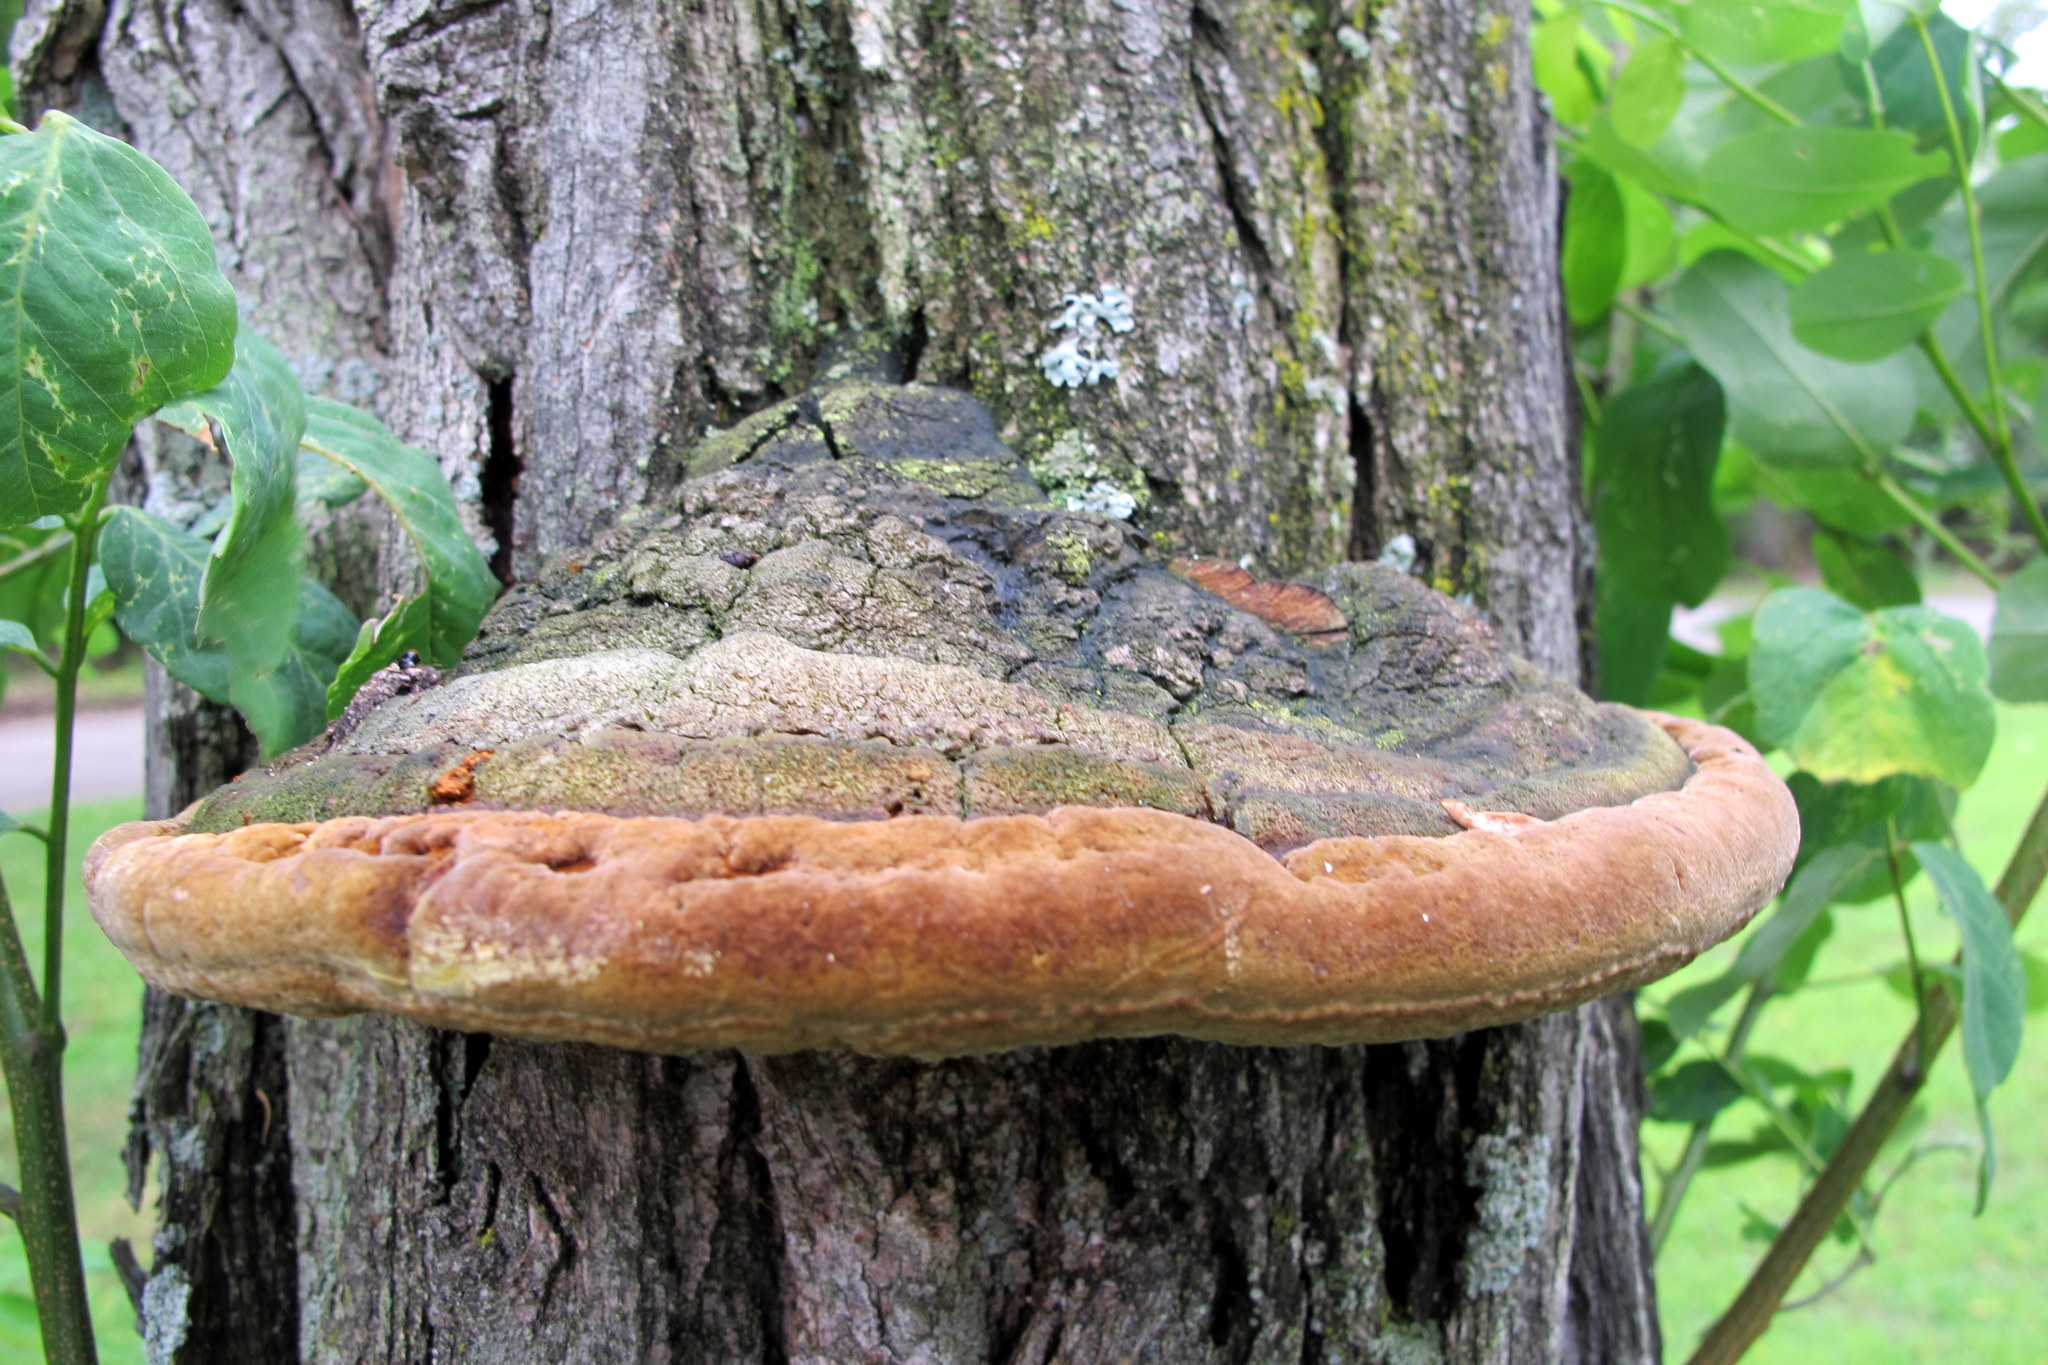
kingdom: Fungi
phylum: Basidiomycota
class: Agaricomycetes
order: Hymenochaetales
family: Hymenochaetaceae
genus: Phellinus
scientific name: Phellinus robiniae
